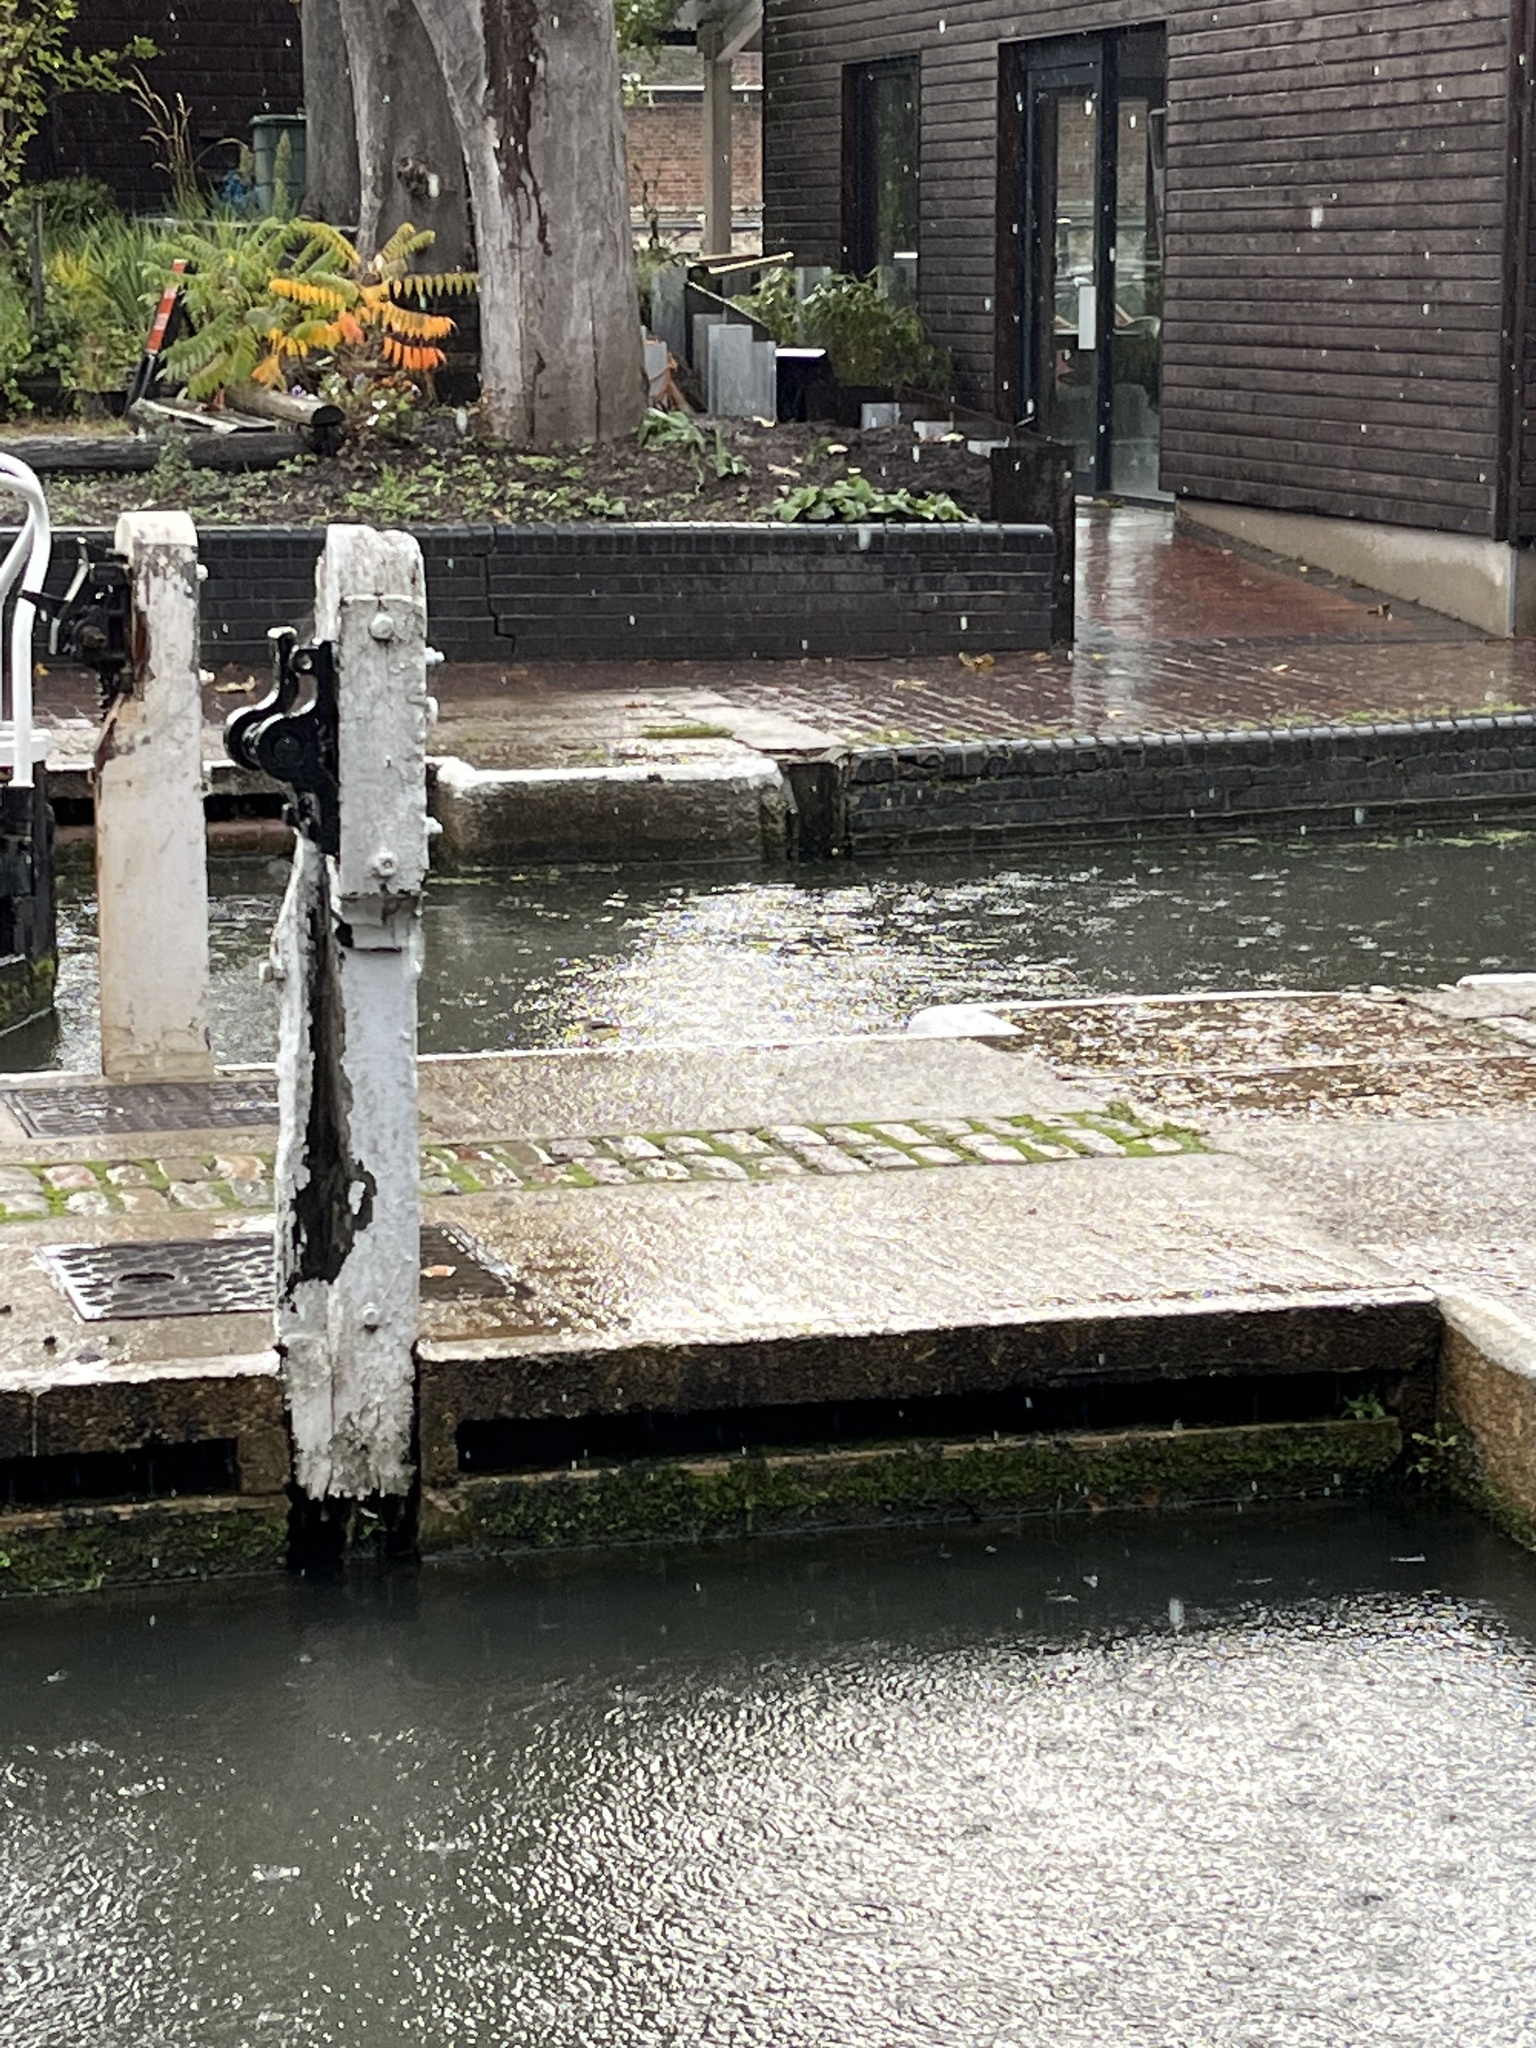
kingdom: Animalia
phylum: Chordata
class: Aves
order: Passeriformes
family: Motacillidae
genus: Motacilla
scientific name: Motacilla cinerea
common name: Grey wagtail
